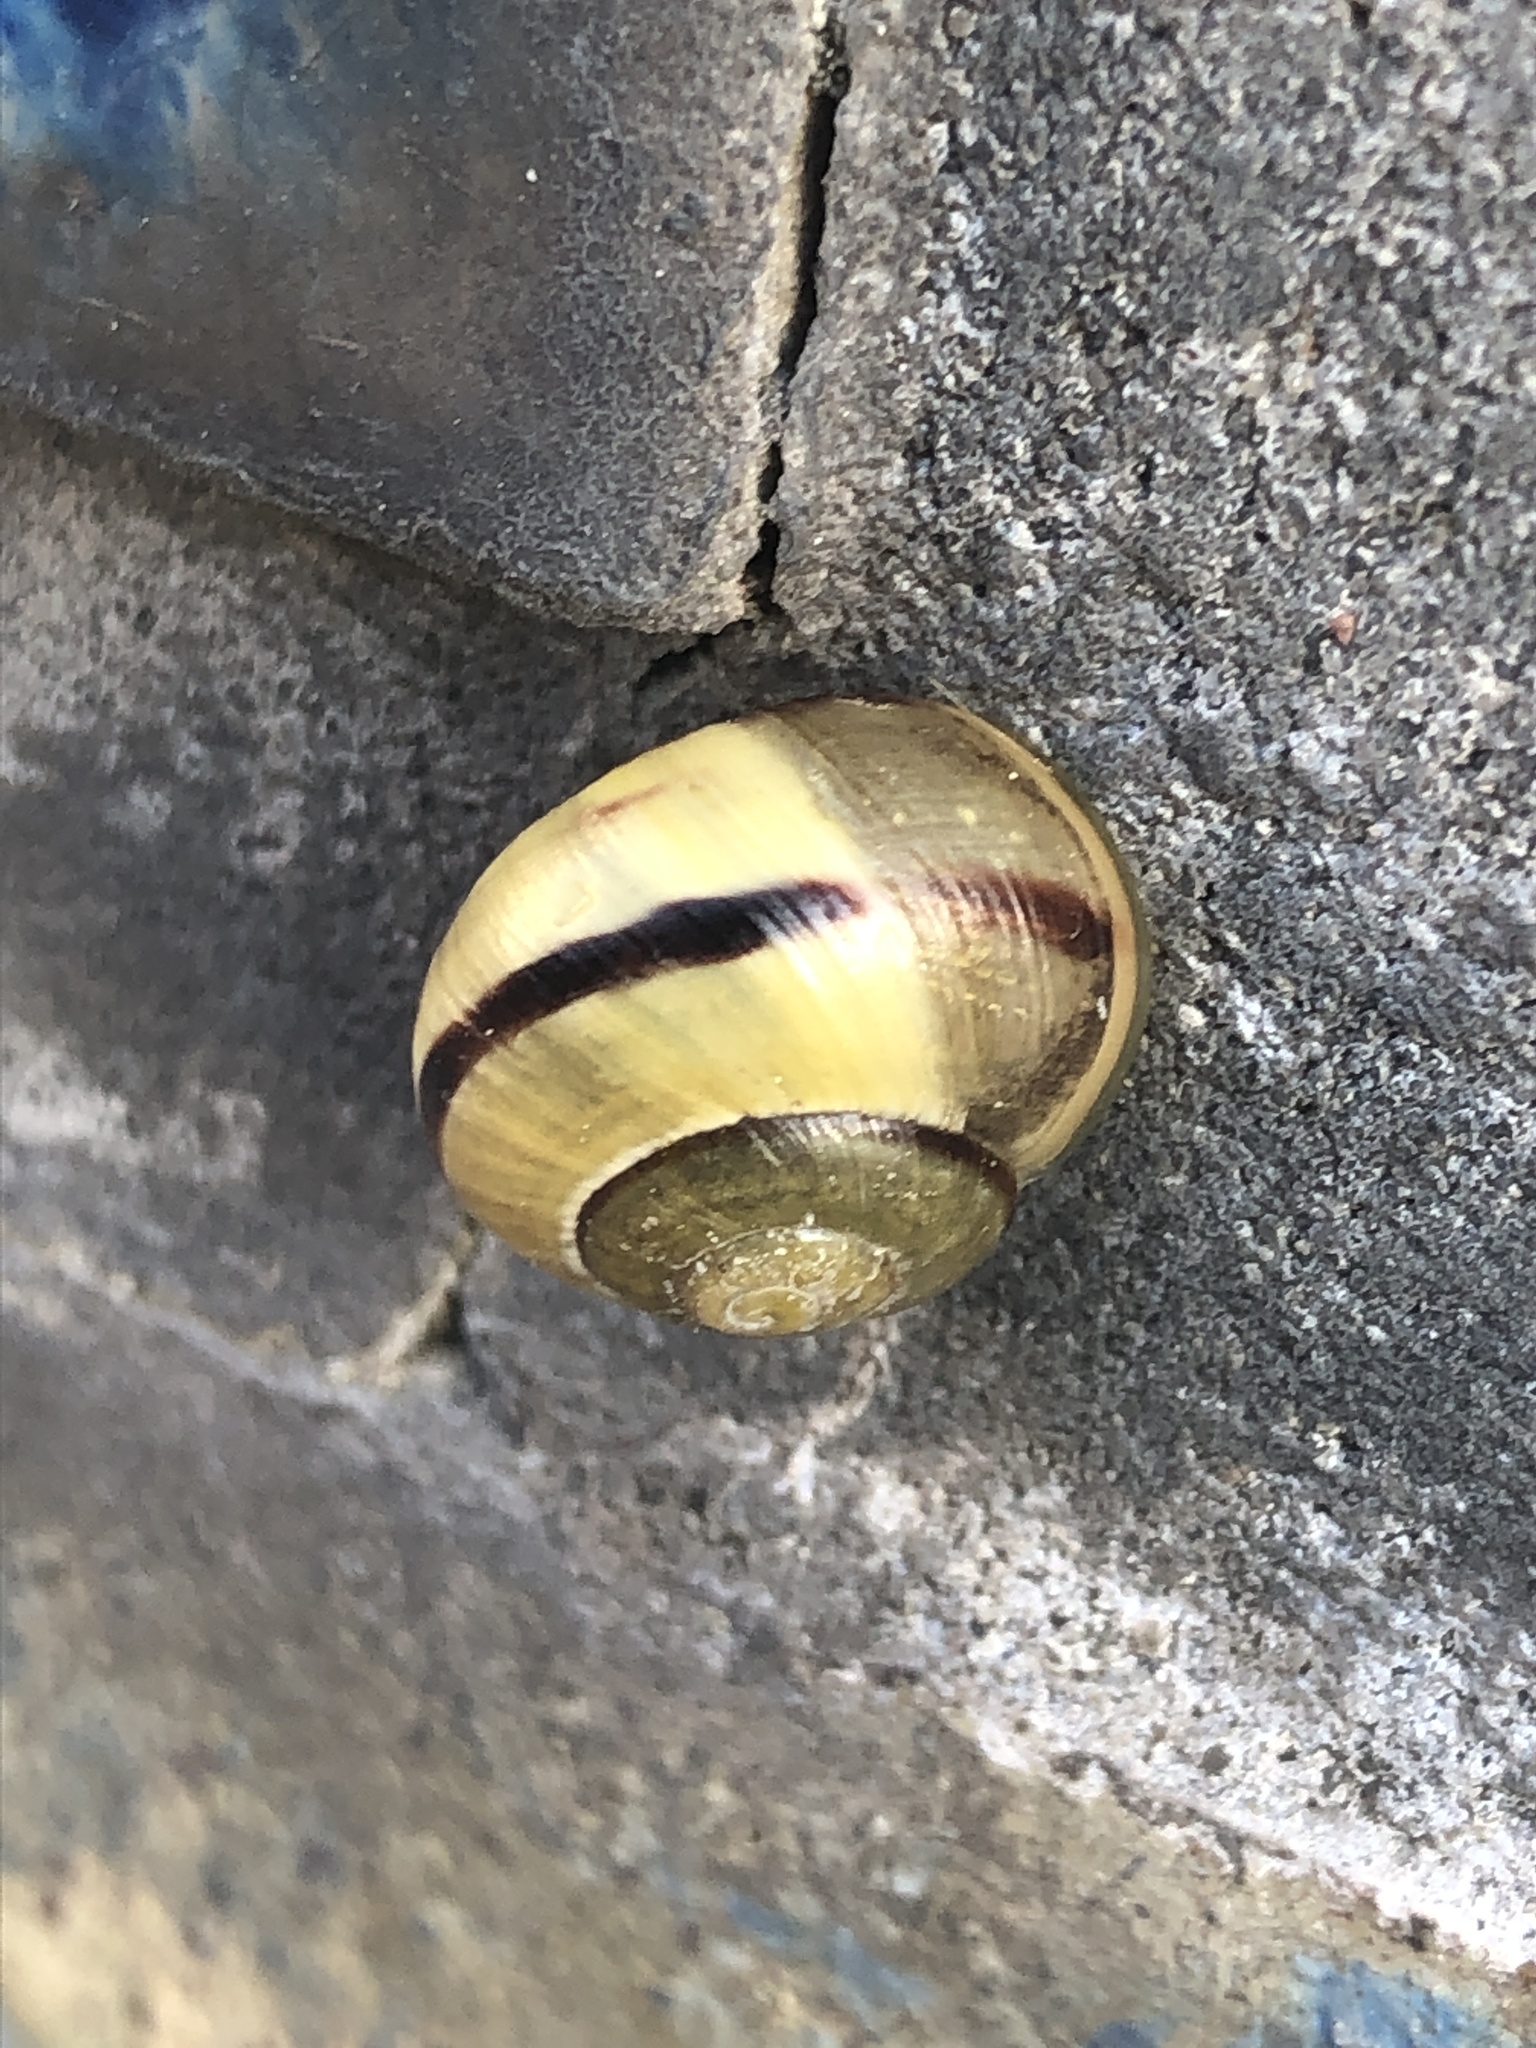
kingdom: Animalia
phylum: Mollusca
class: Gastropoda
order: Stylommatophora
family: Helicidae
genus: Cepaea
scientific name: Cepaea
